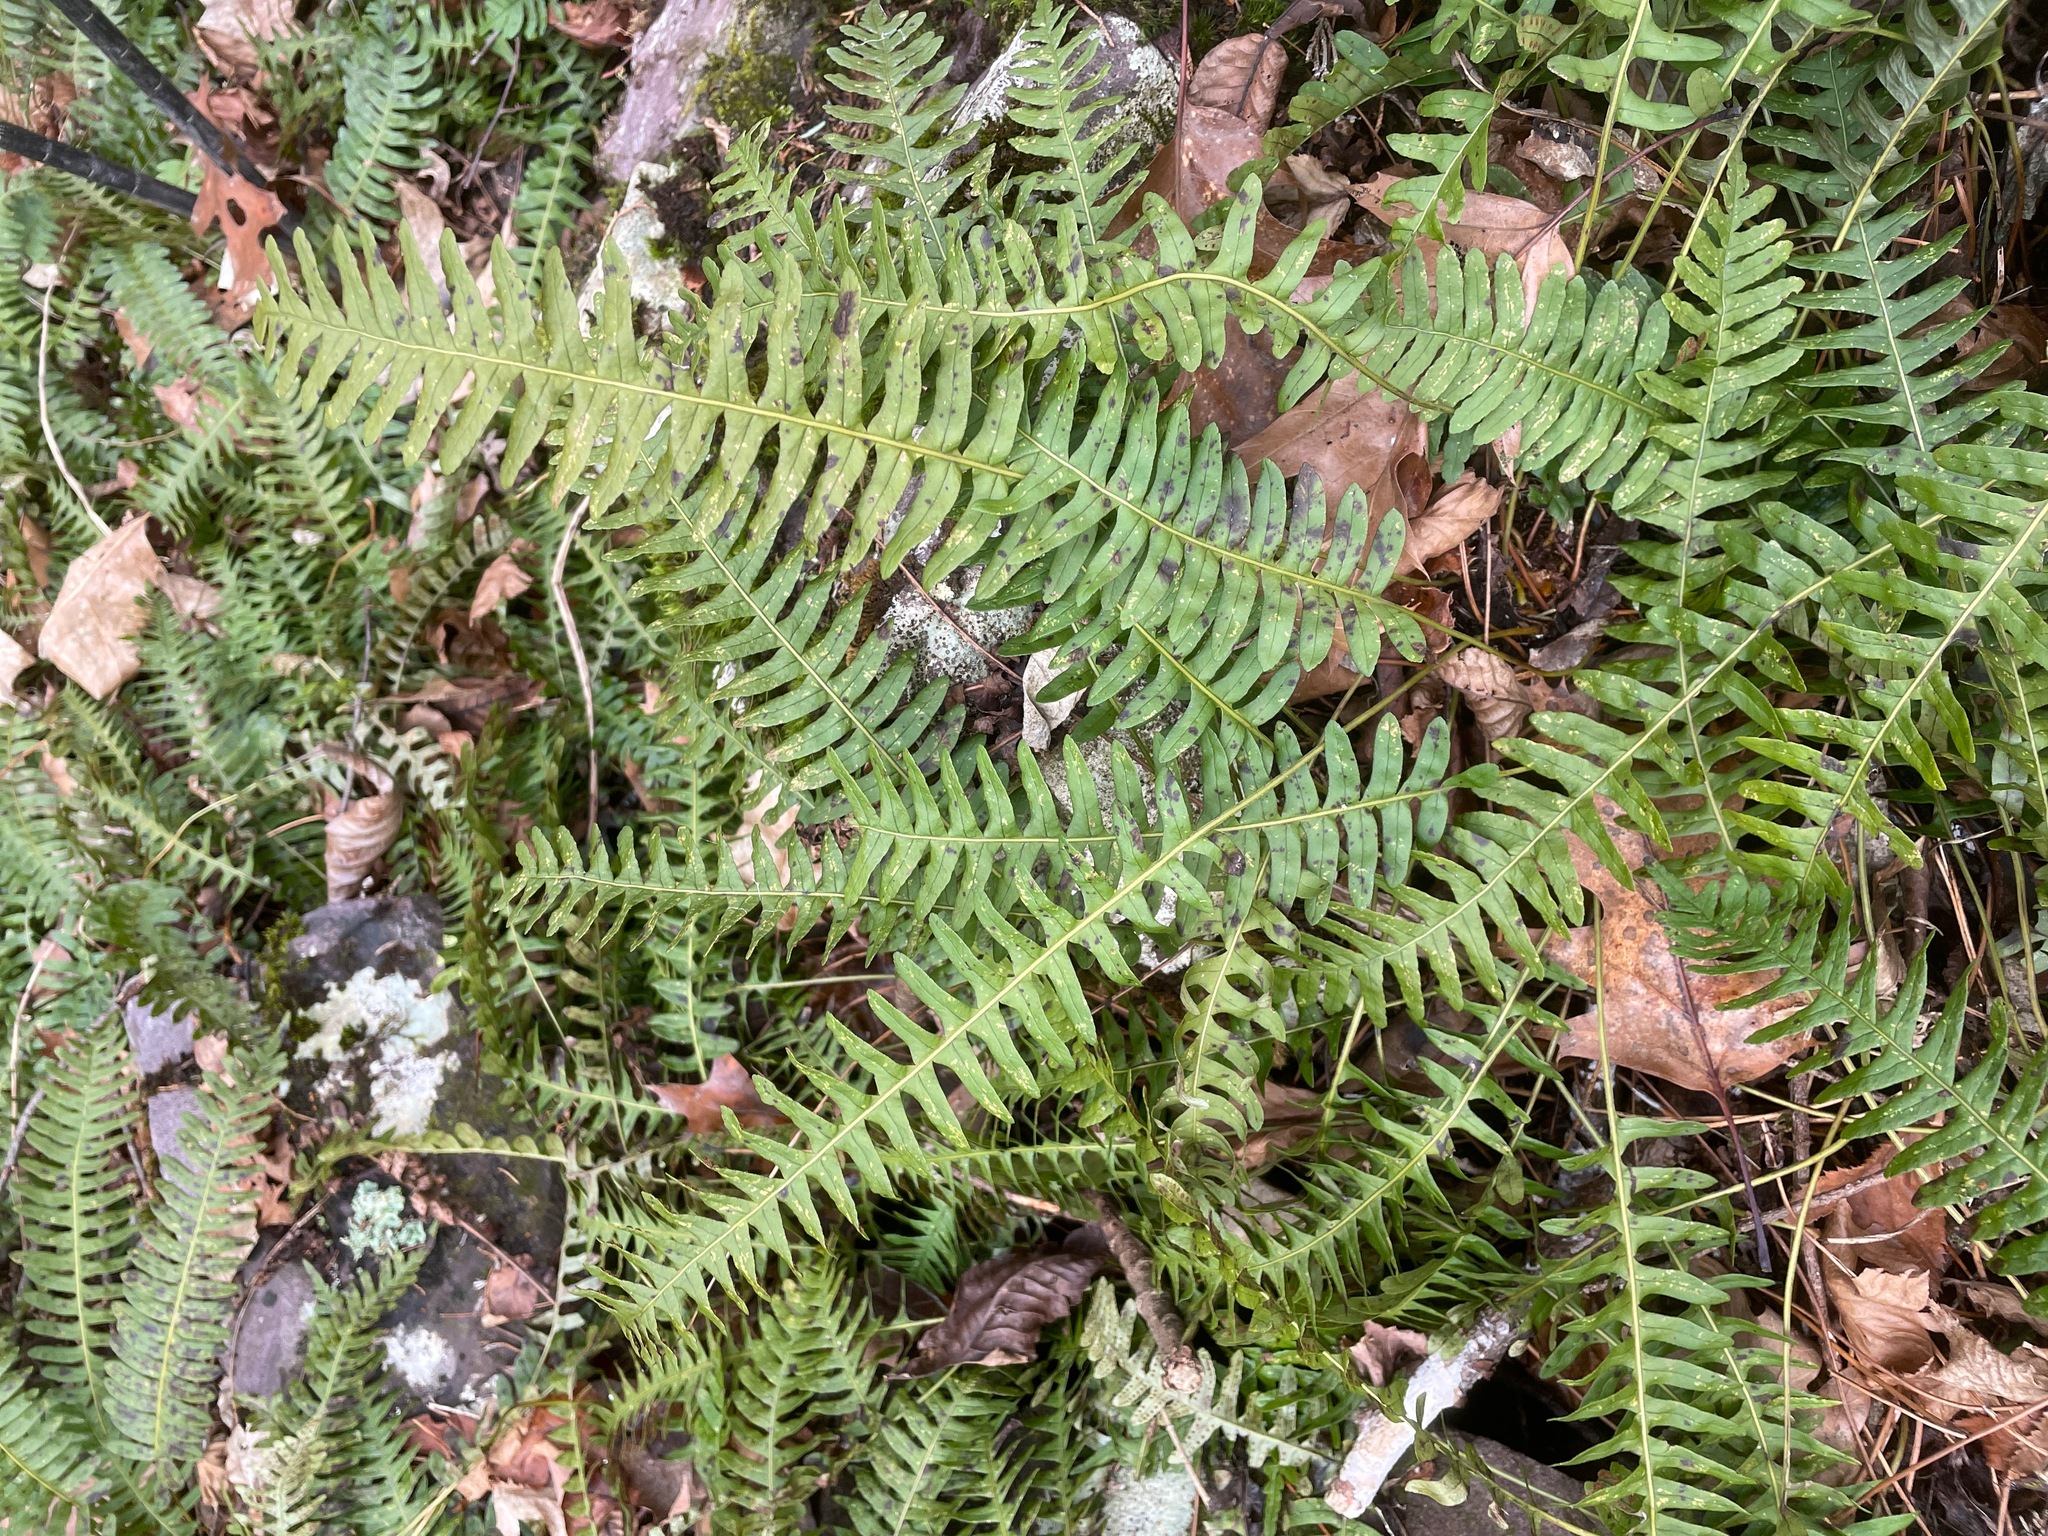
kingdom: Plantae
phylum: Tracheophyta
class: Polypodiopsida
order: Polypodiales
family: Polypodiaceae
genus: Polypodium
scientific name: Polypodium virginianum
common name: American wall fern
